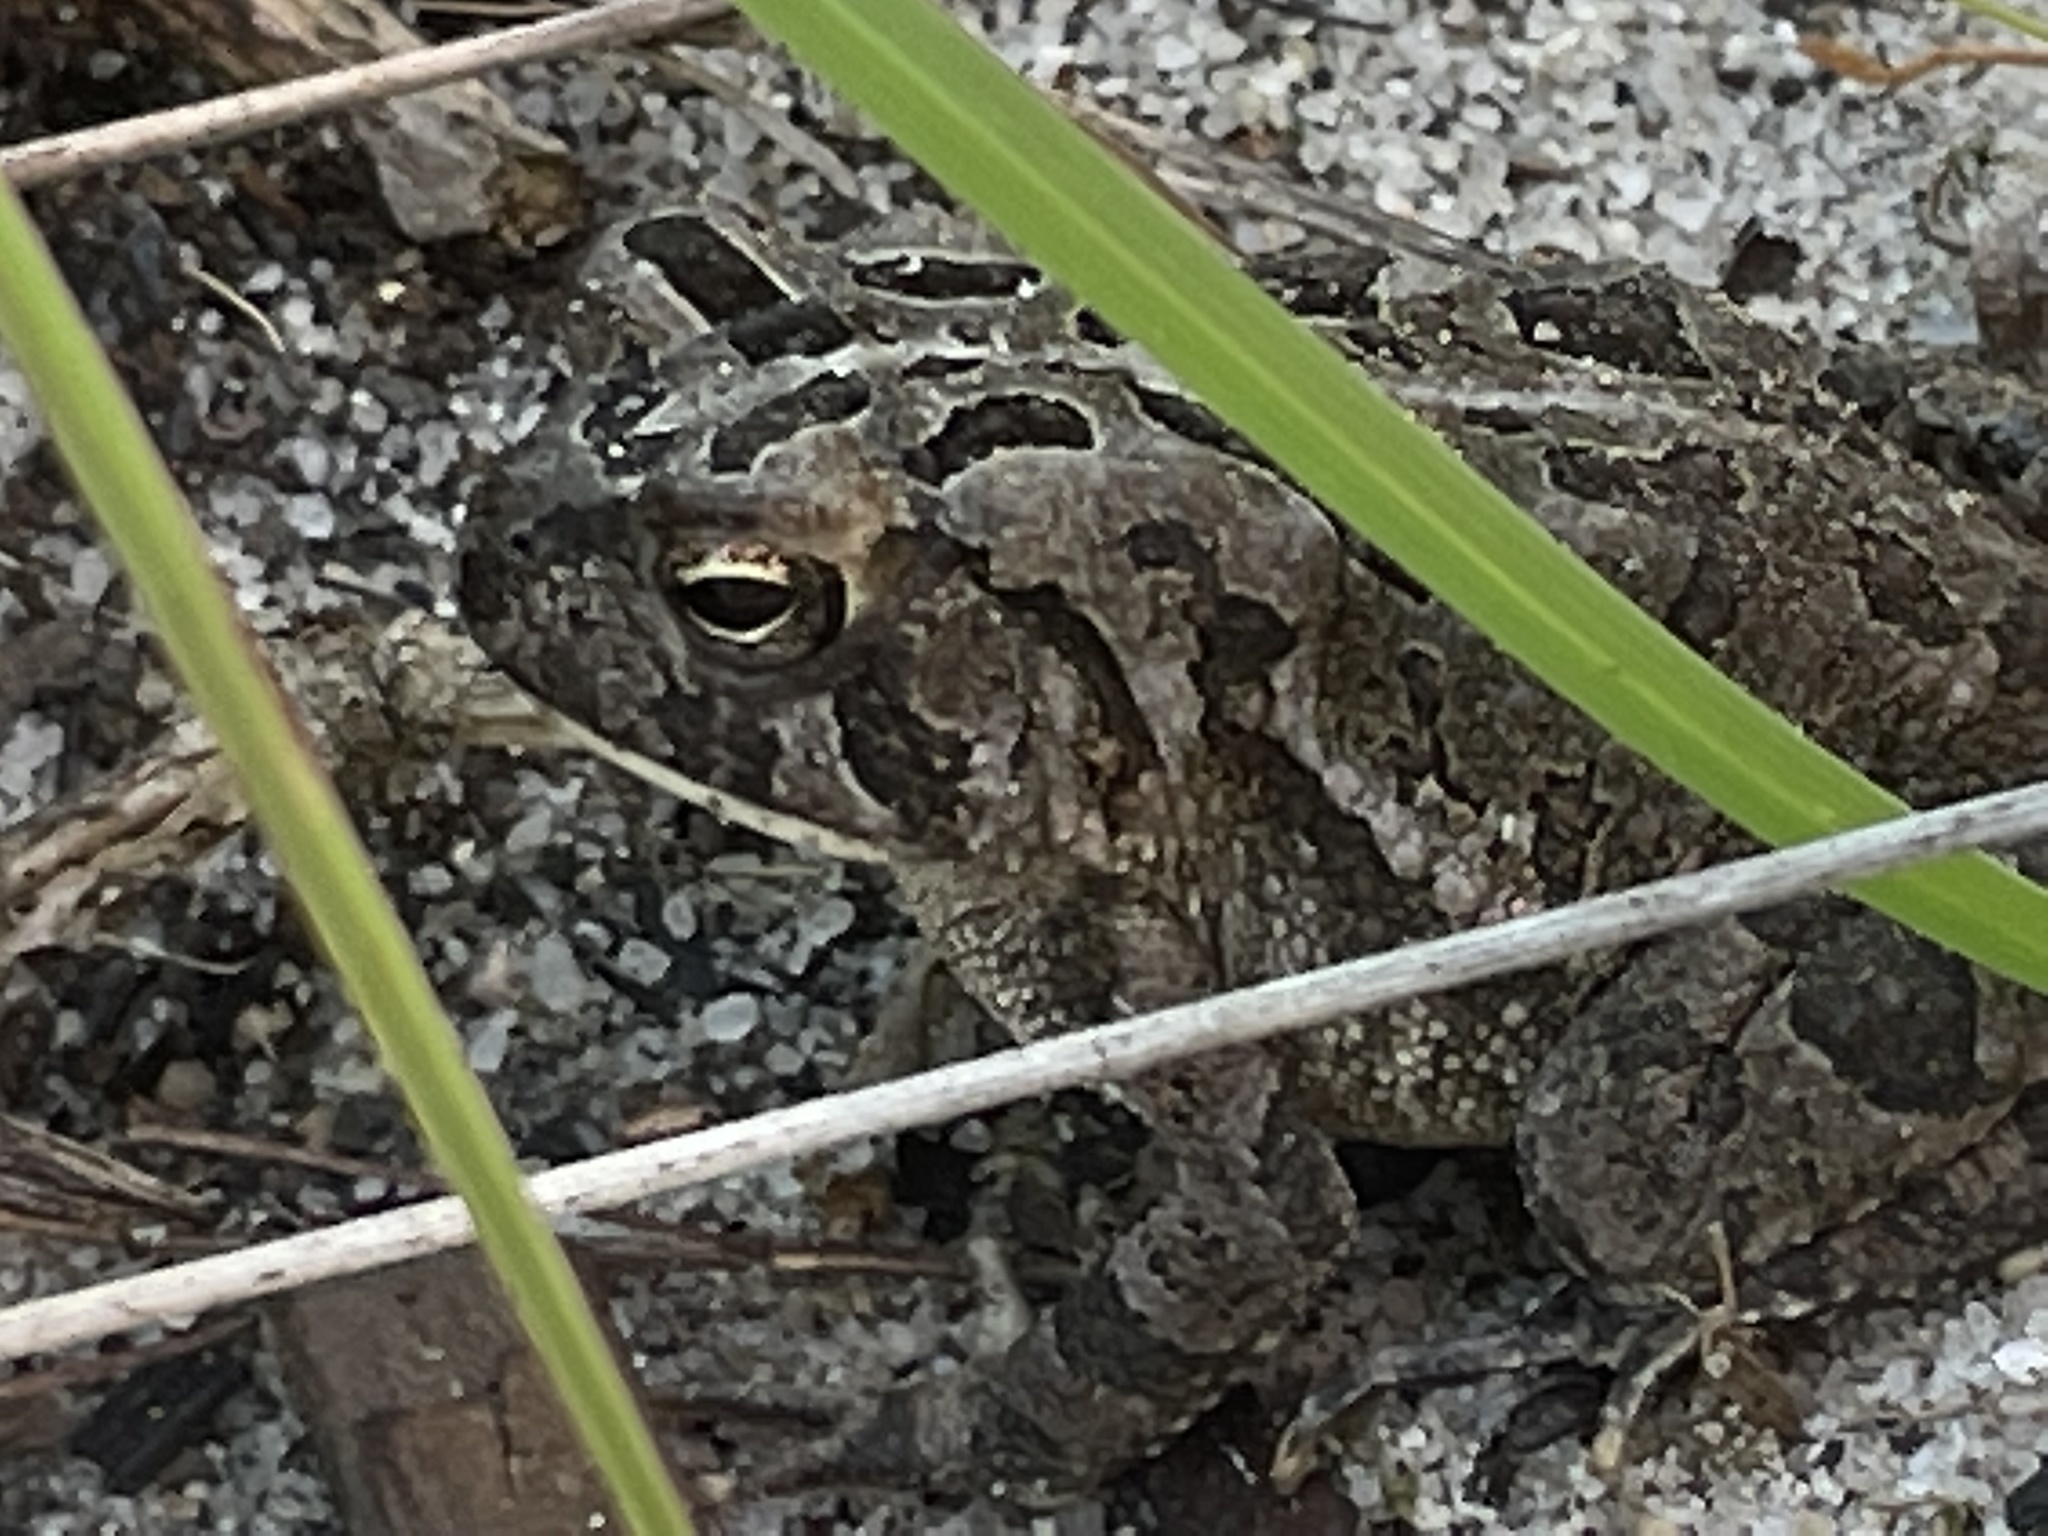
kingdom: Animalia
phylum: Chordata
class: Amphibia
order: Anura
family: Bufonidae
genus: Anaxyrus
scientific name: Anaxyrus fowleri
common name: Fowler's toad
